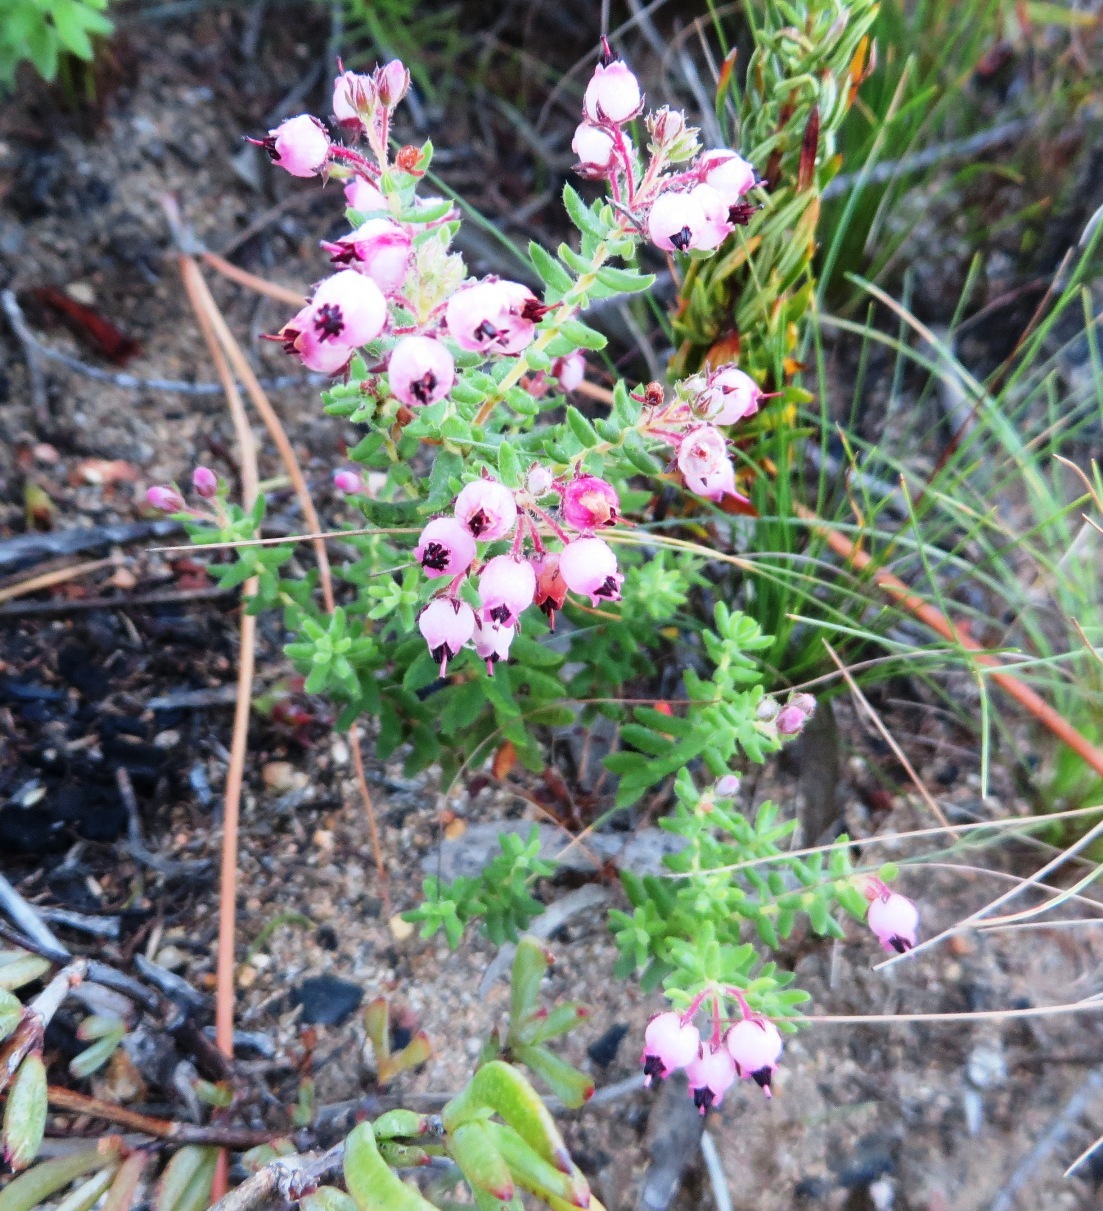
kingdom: Plantae
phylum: Tracheophyta
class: Magnoliopsida
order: Ericales
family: Ericaceae
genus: Erica
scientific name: Erica hirta
